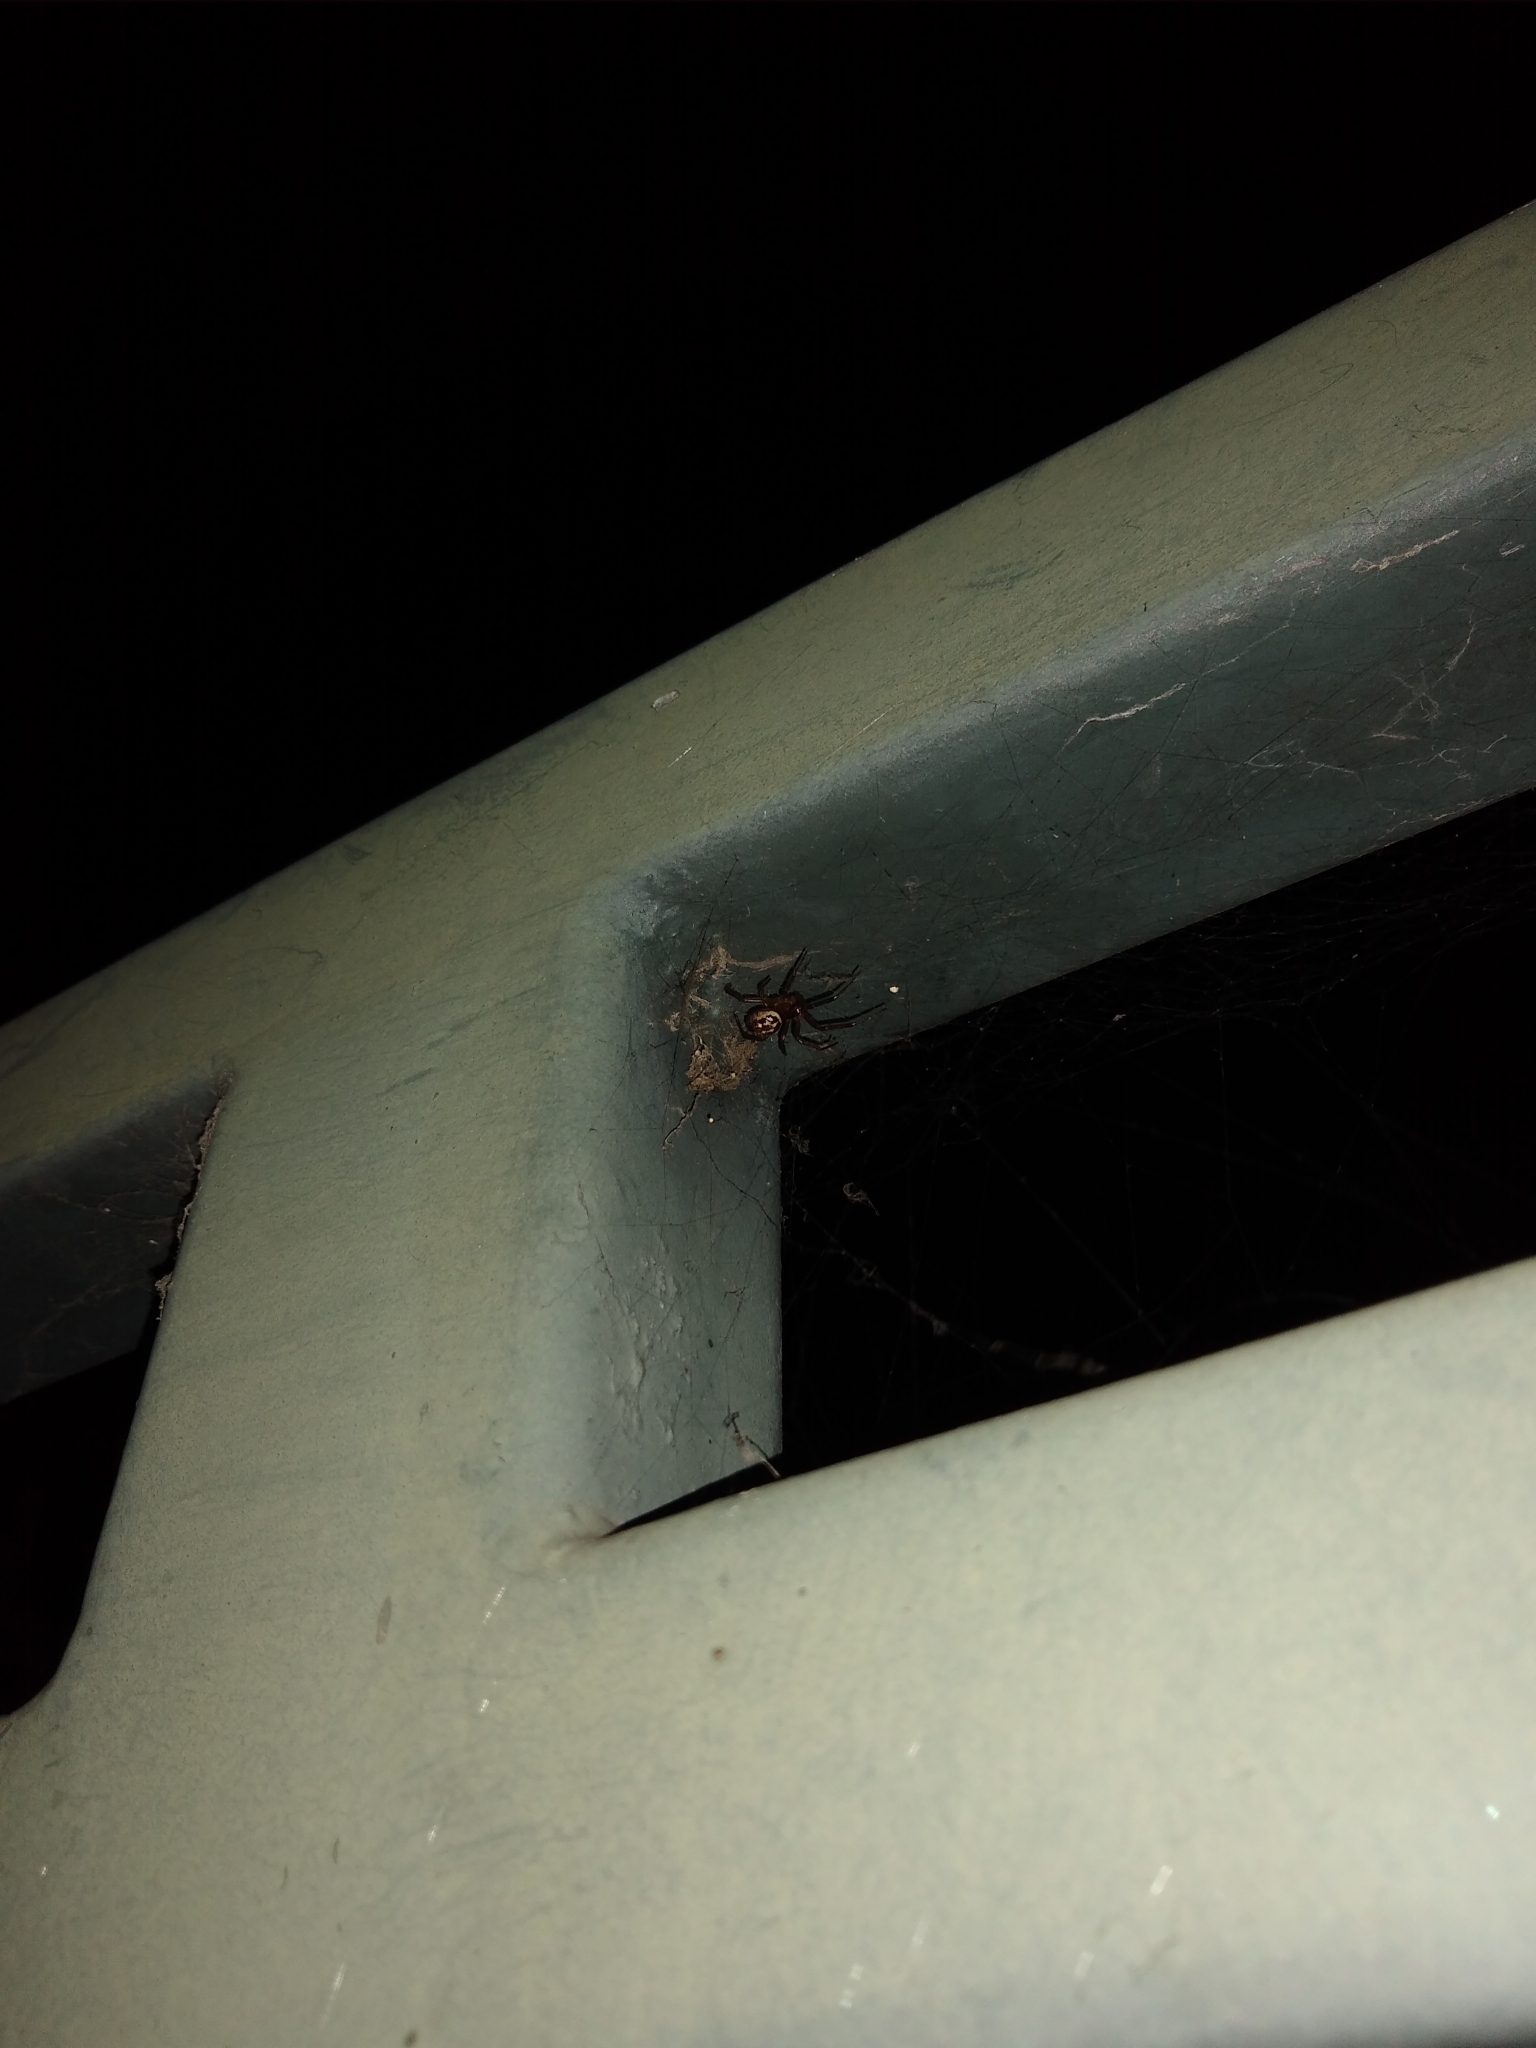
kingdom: Animalia
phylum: Arthropoda
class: Arachnida
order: Araneae
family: Theridiidae
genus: Steatoda
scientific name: Steatoda nobilis
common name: Cobweb weaver
